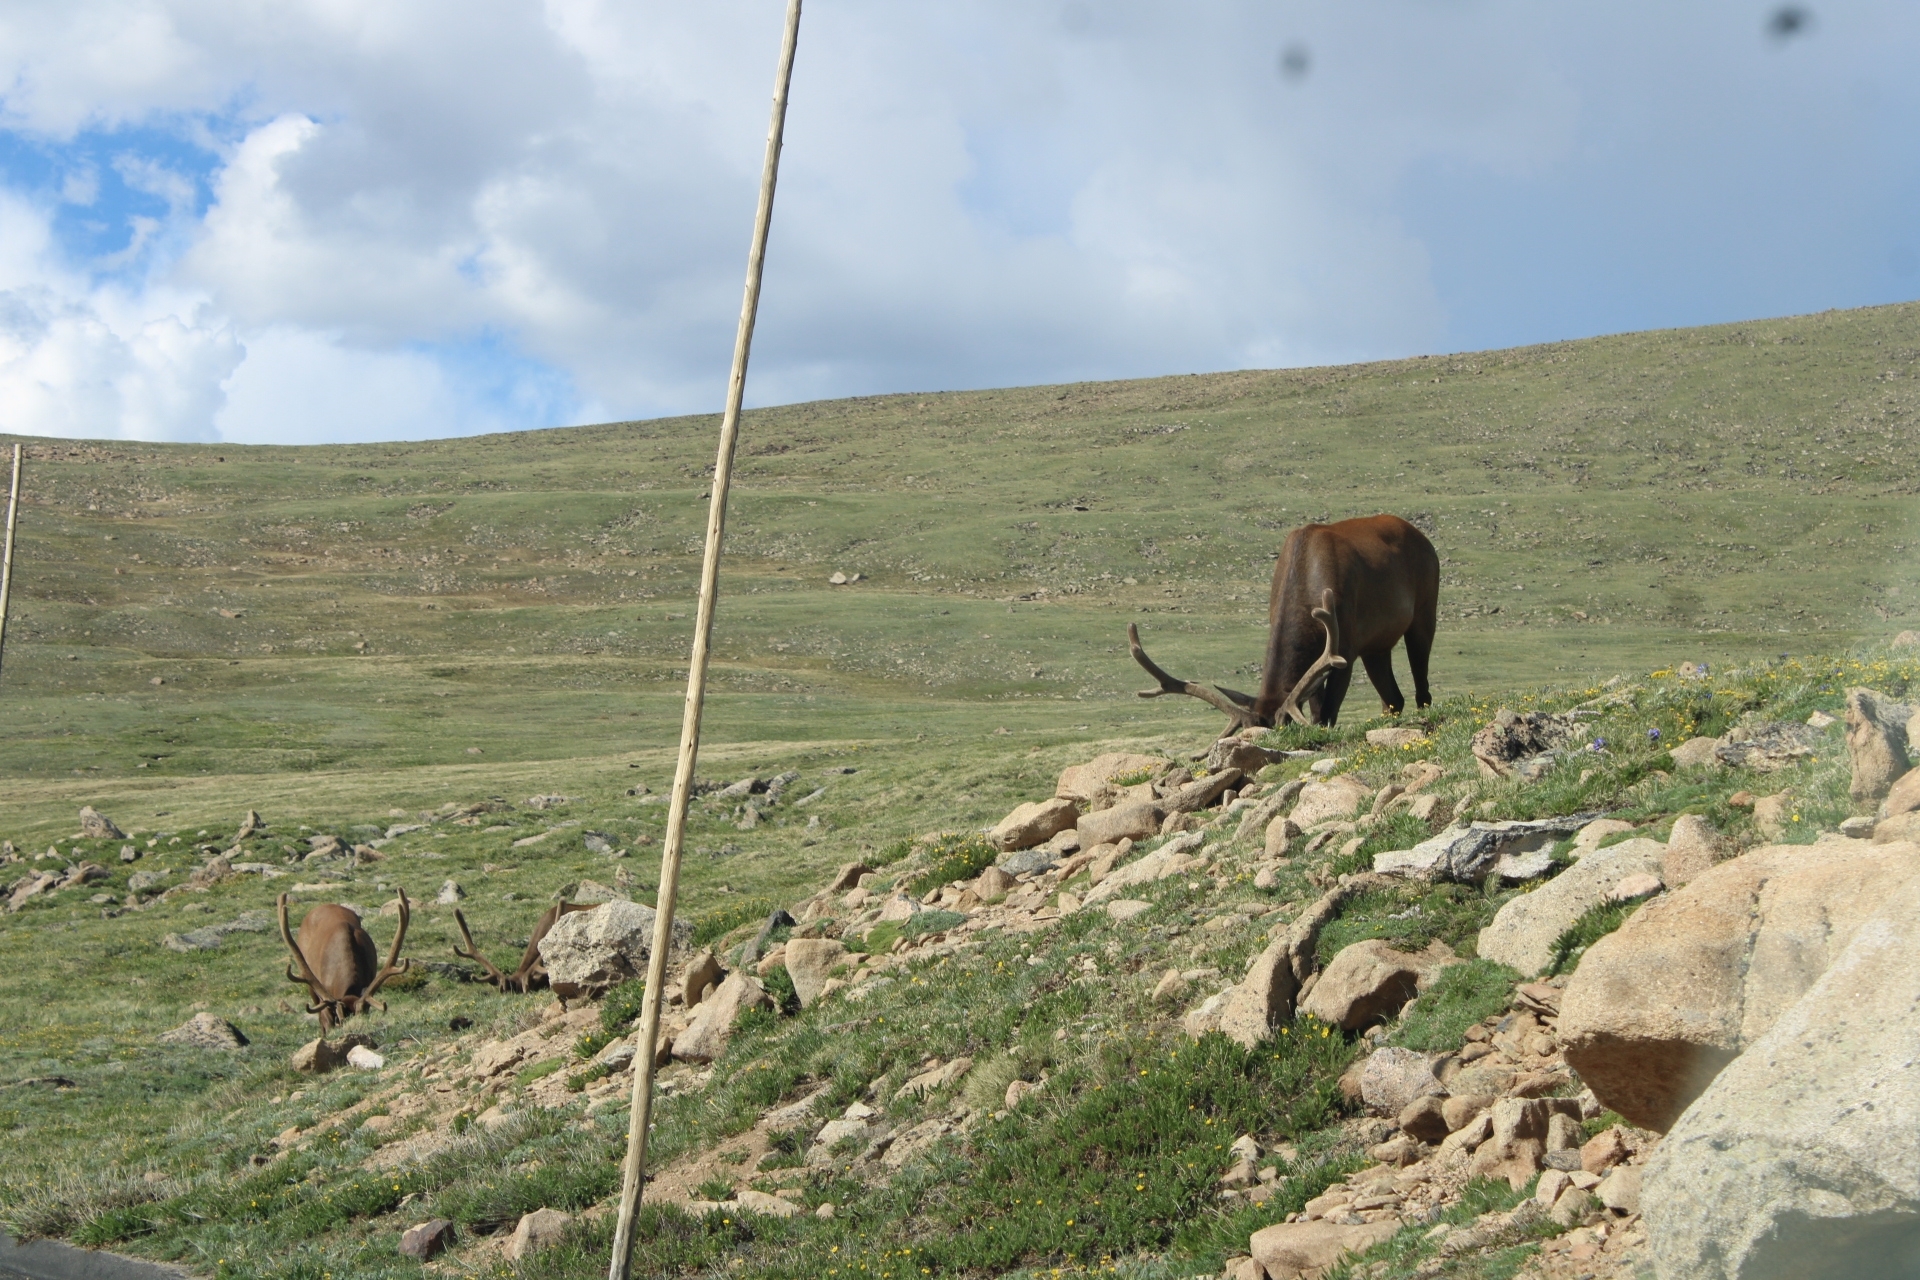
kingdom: Animalia
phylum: Chordata
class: Mammalia
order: Artiodactyla
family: Cervidae
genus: Cervus
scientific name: Cervus elaphus
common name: Red deer
